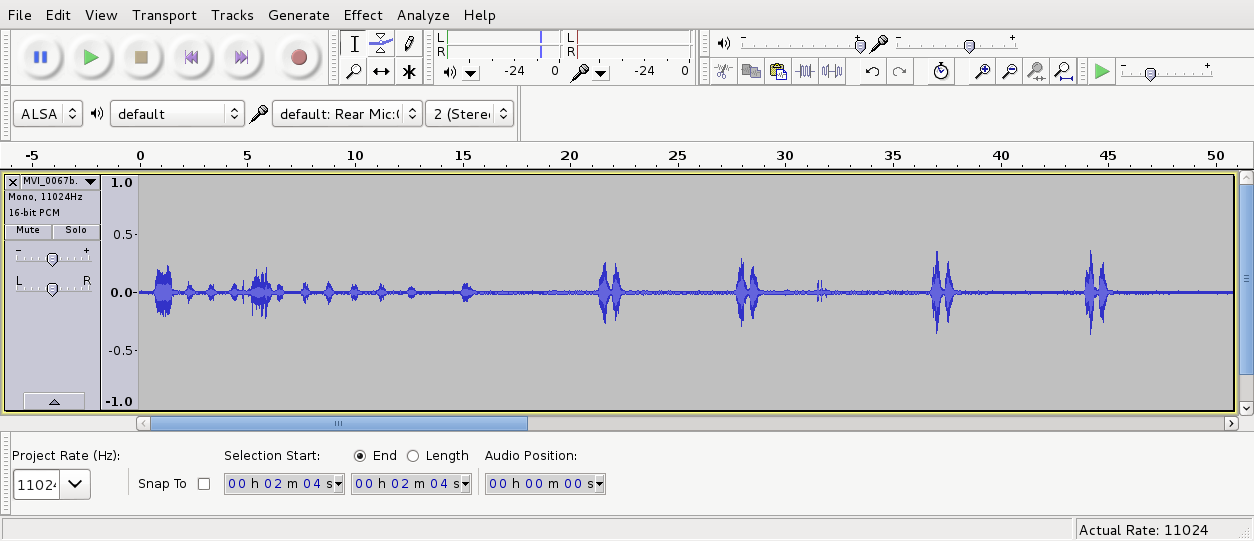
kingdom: Animalia
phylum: Chordata
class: Aves
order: Strigiformes
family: Strigidae
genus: Ninox
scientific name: Ninox novaeseelandiae
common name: Morepork
